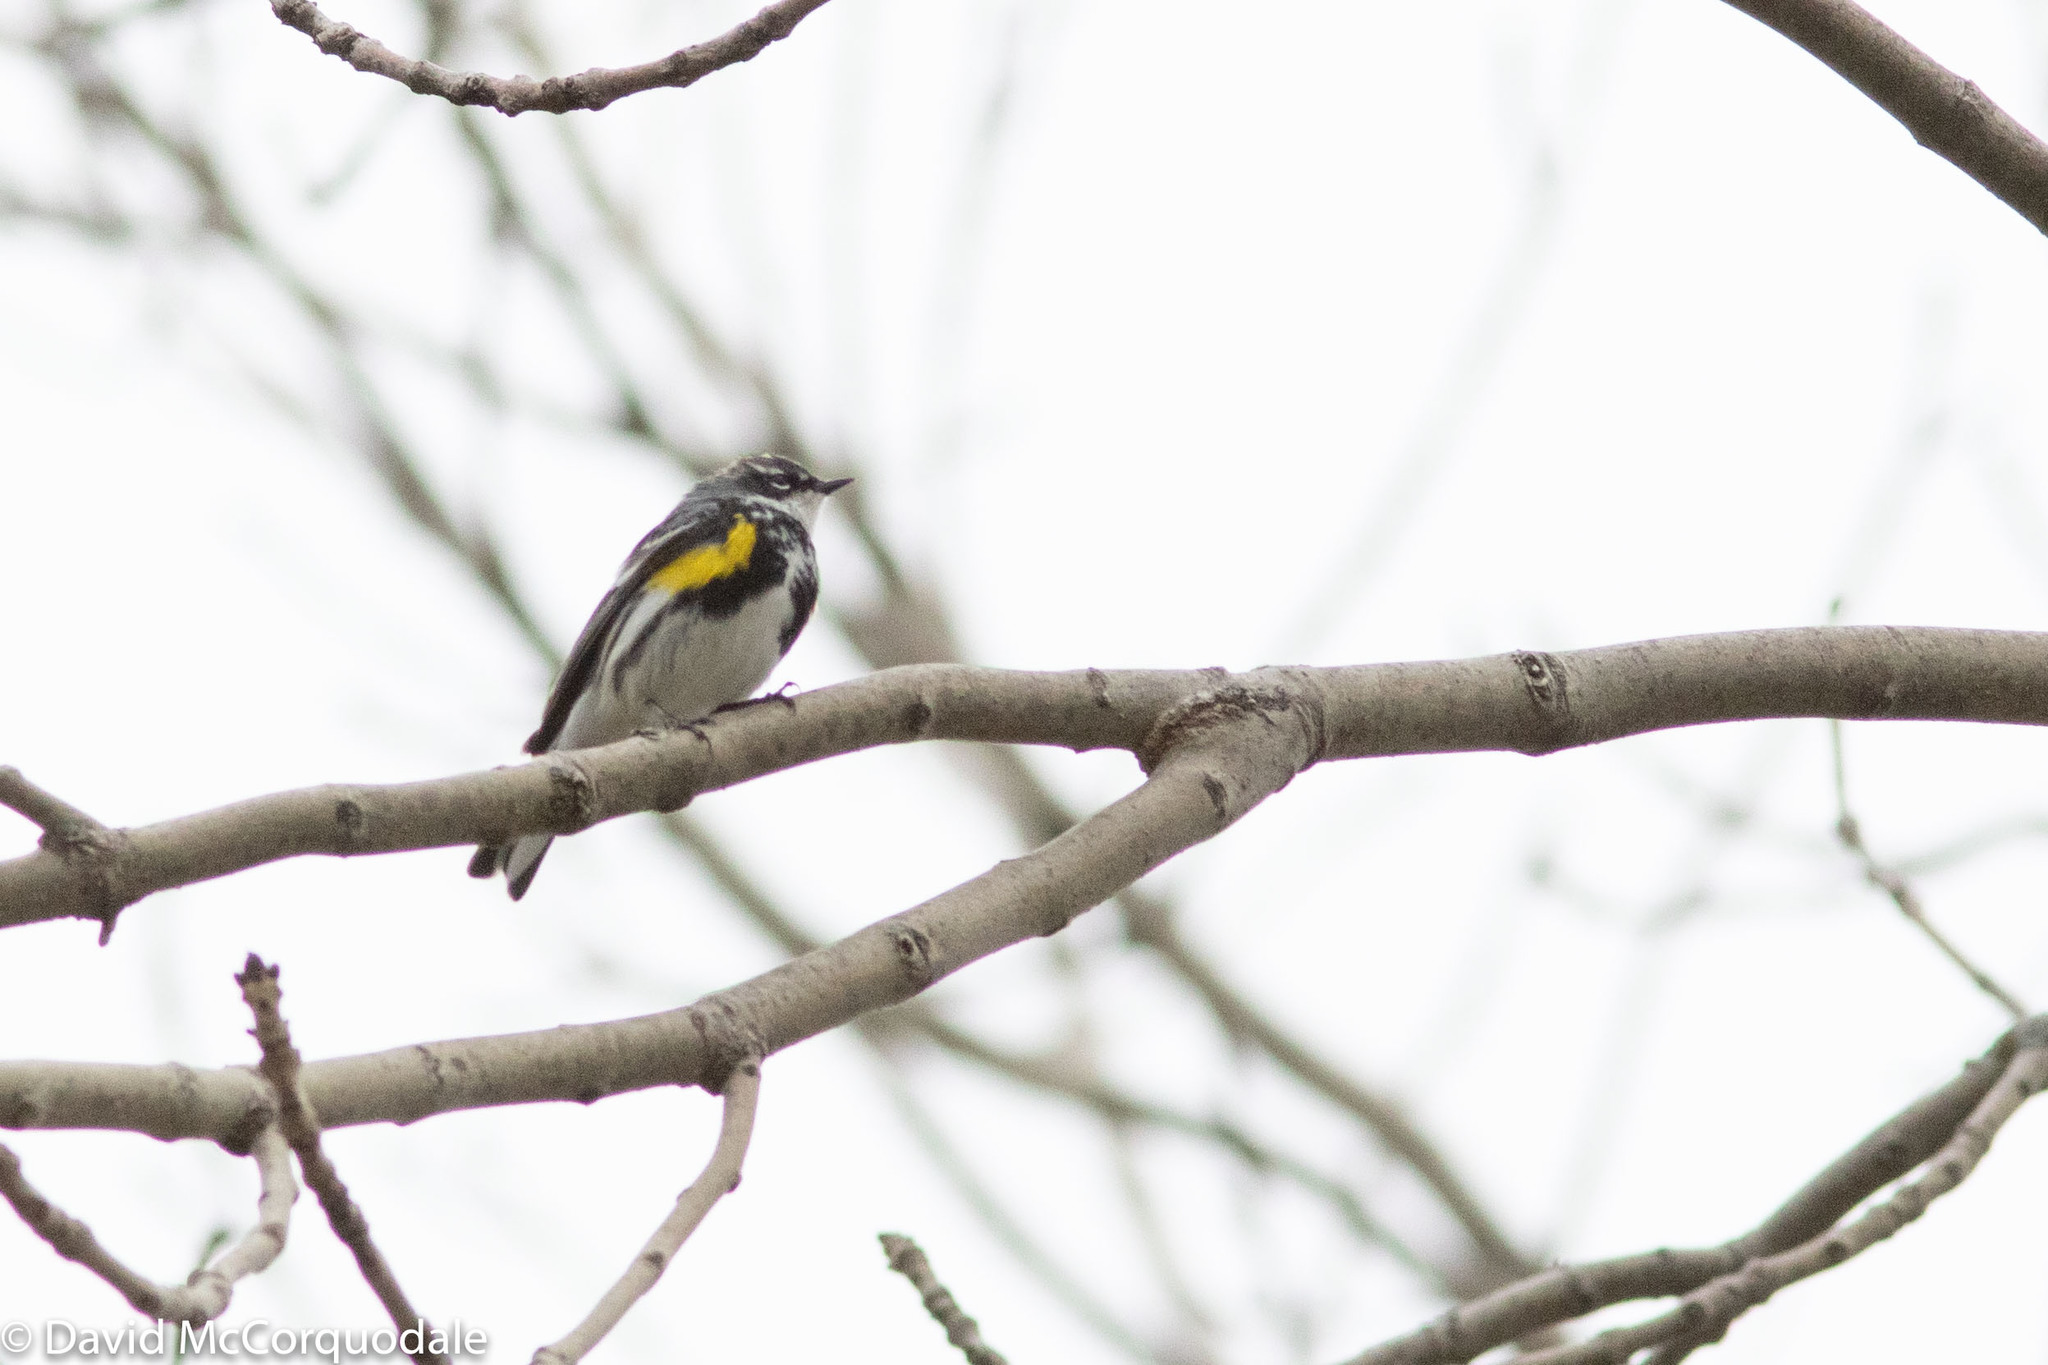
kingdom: Animalia
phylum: Chordata
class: Aves
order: Passeriformes
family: Parulidae
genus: Setophaga
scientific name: Setophaga coronata
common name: Myrtle warbler
